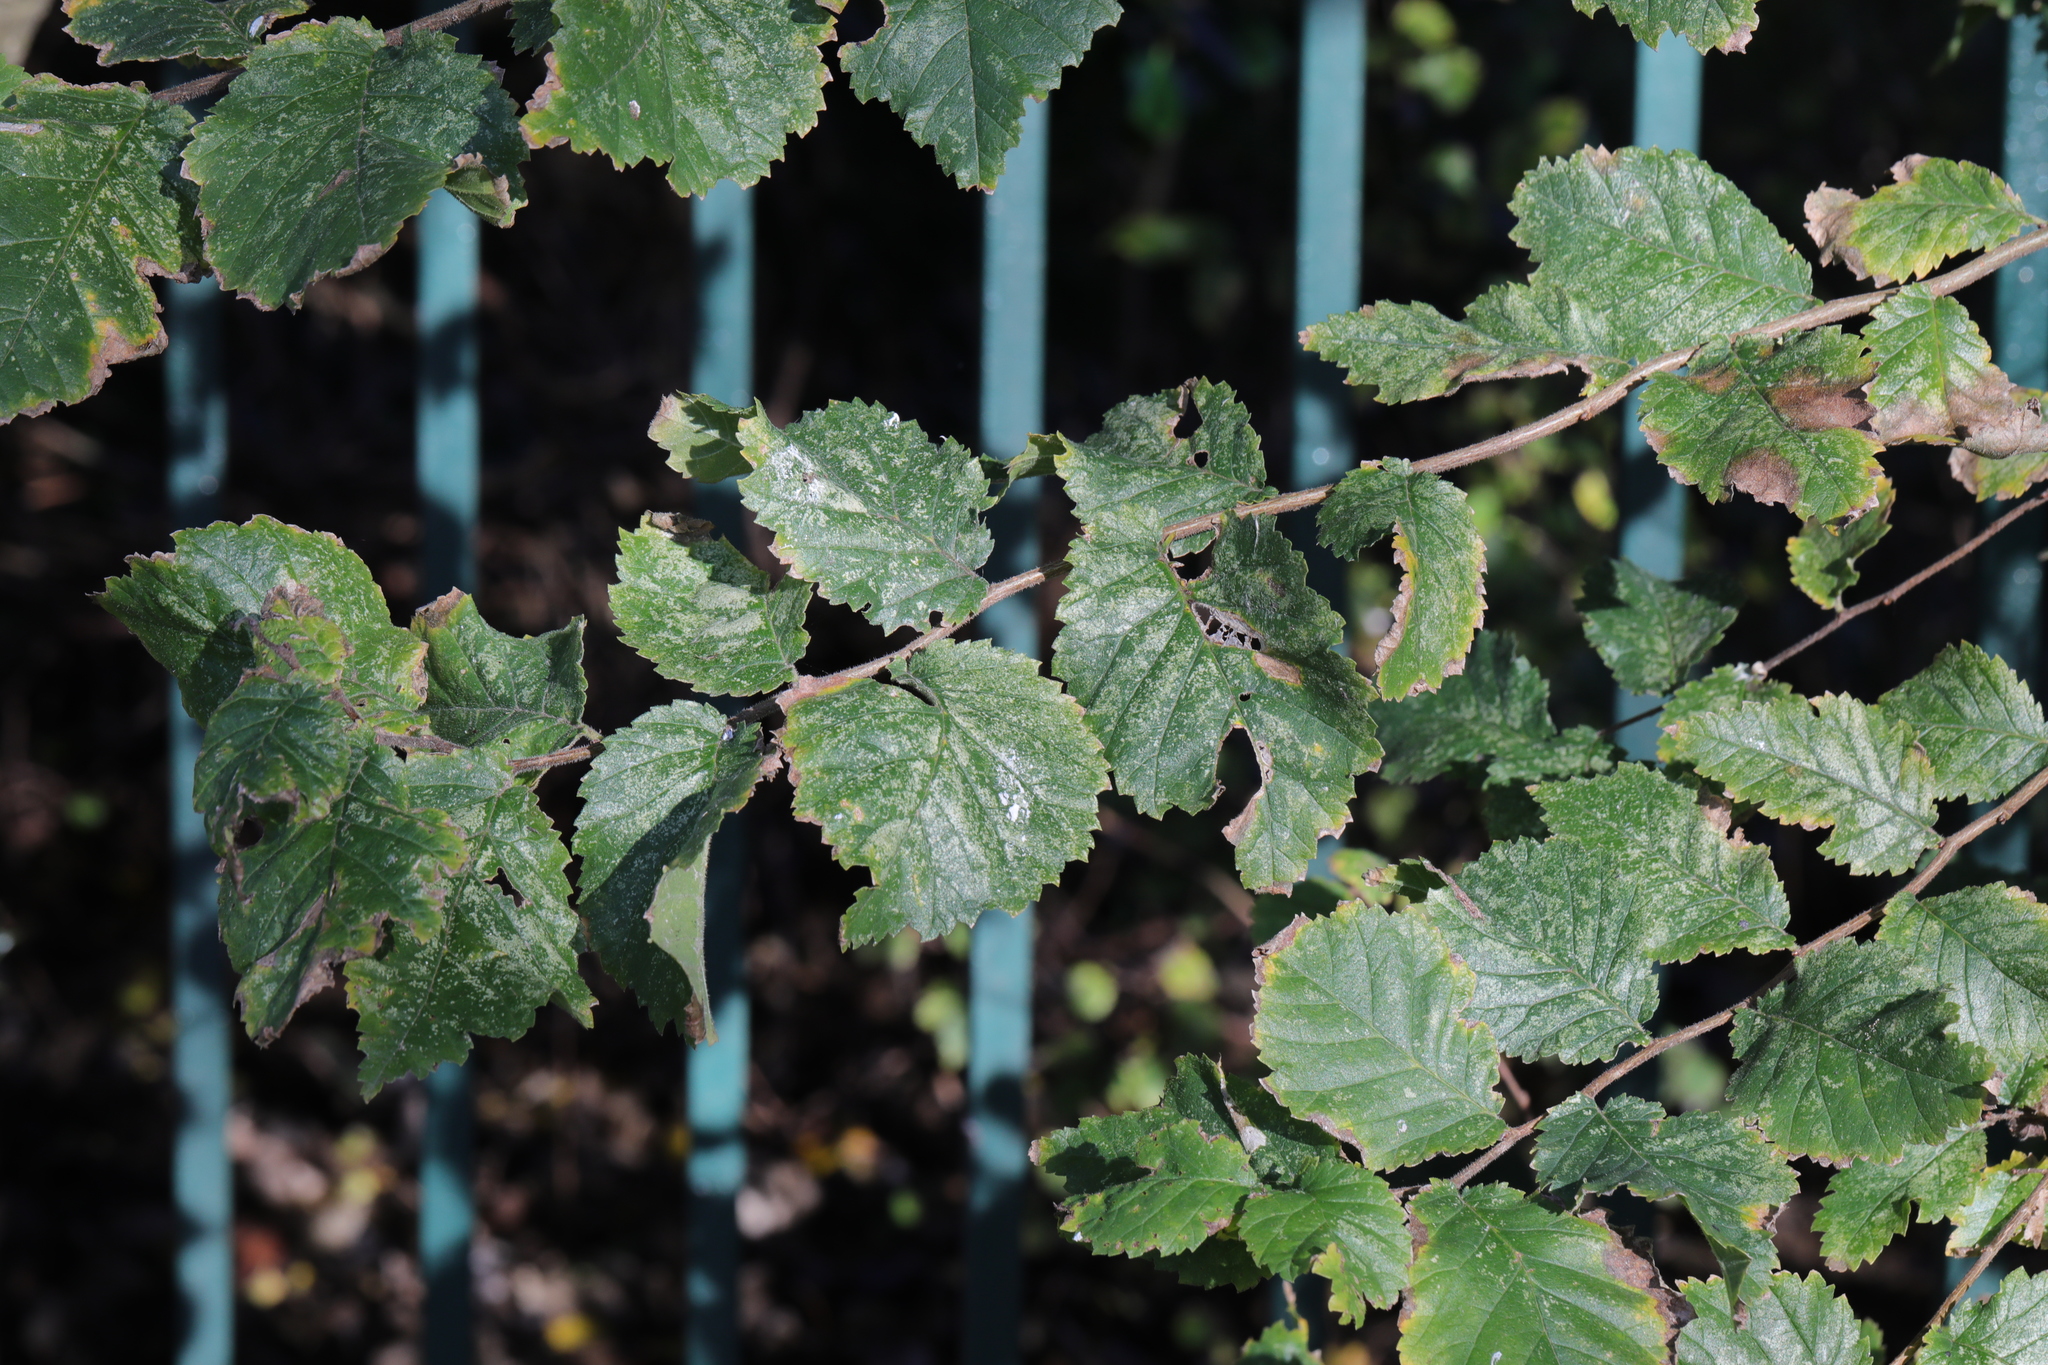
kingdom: Plantae
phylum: Tracheophyta
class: Magnoliopsida
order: Rosales
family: Ulmaceae
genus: Ulmus
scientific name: Ulmus minor
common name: Small-leaved elm
